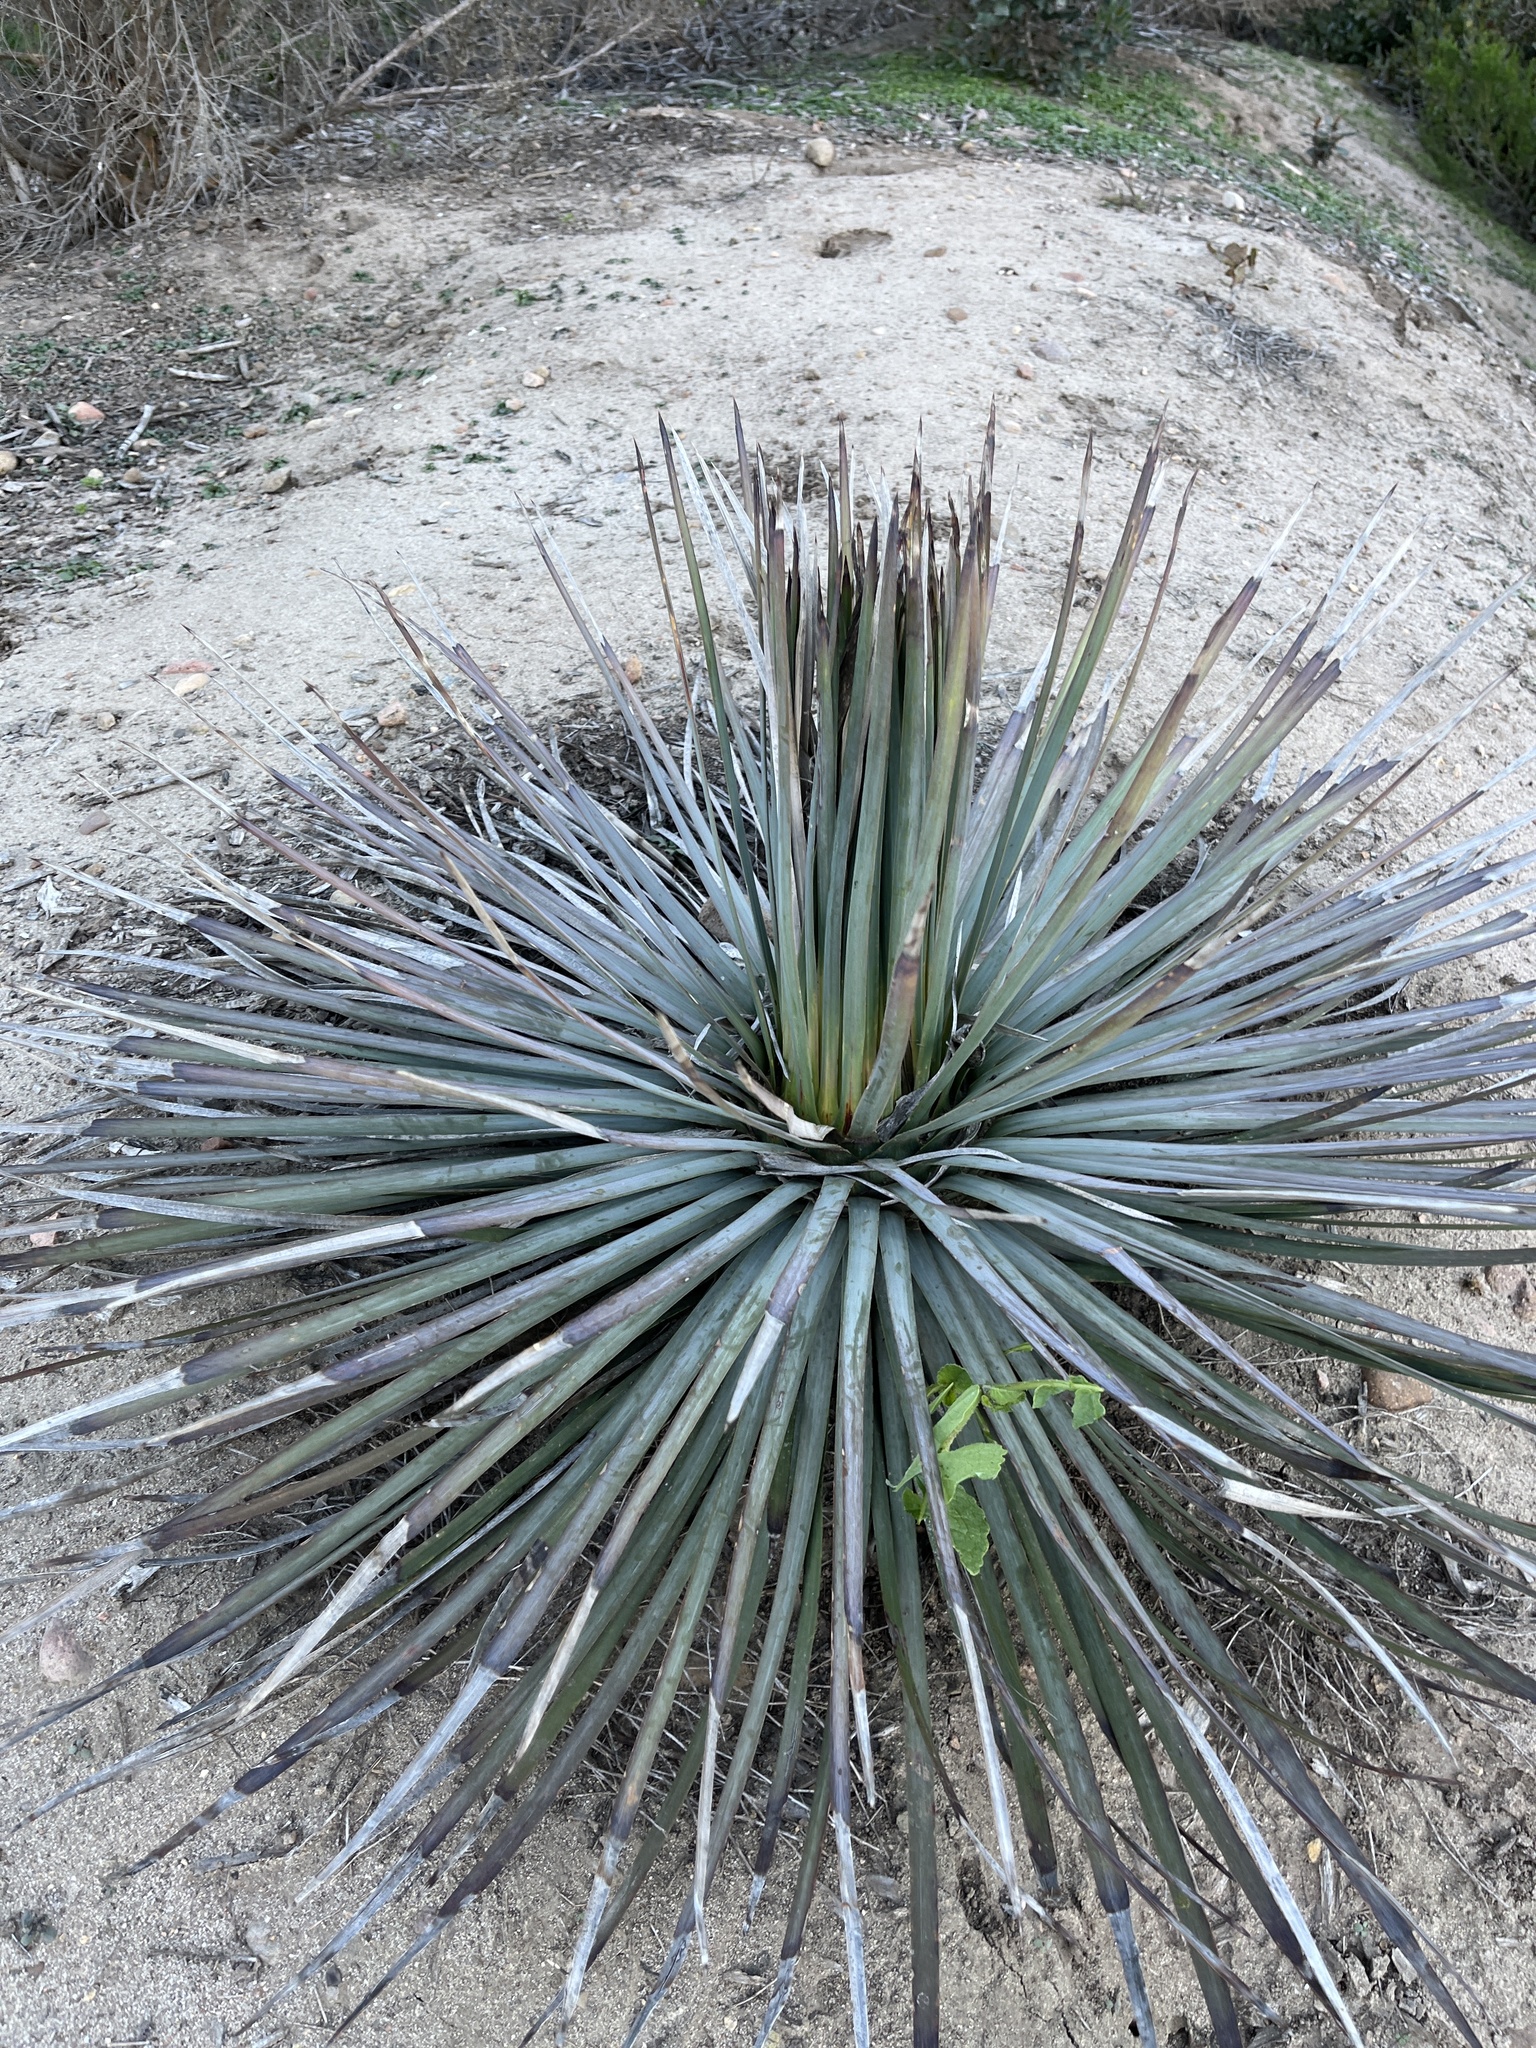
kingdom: Plantae
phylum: Tracheophyta
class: Liliopsida
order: Asparagales
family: Asparagaceae
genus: Hesperoyucca
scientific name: Hesperoyucca whipplei
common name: Our lord's-candle
